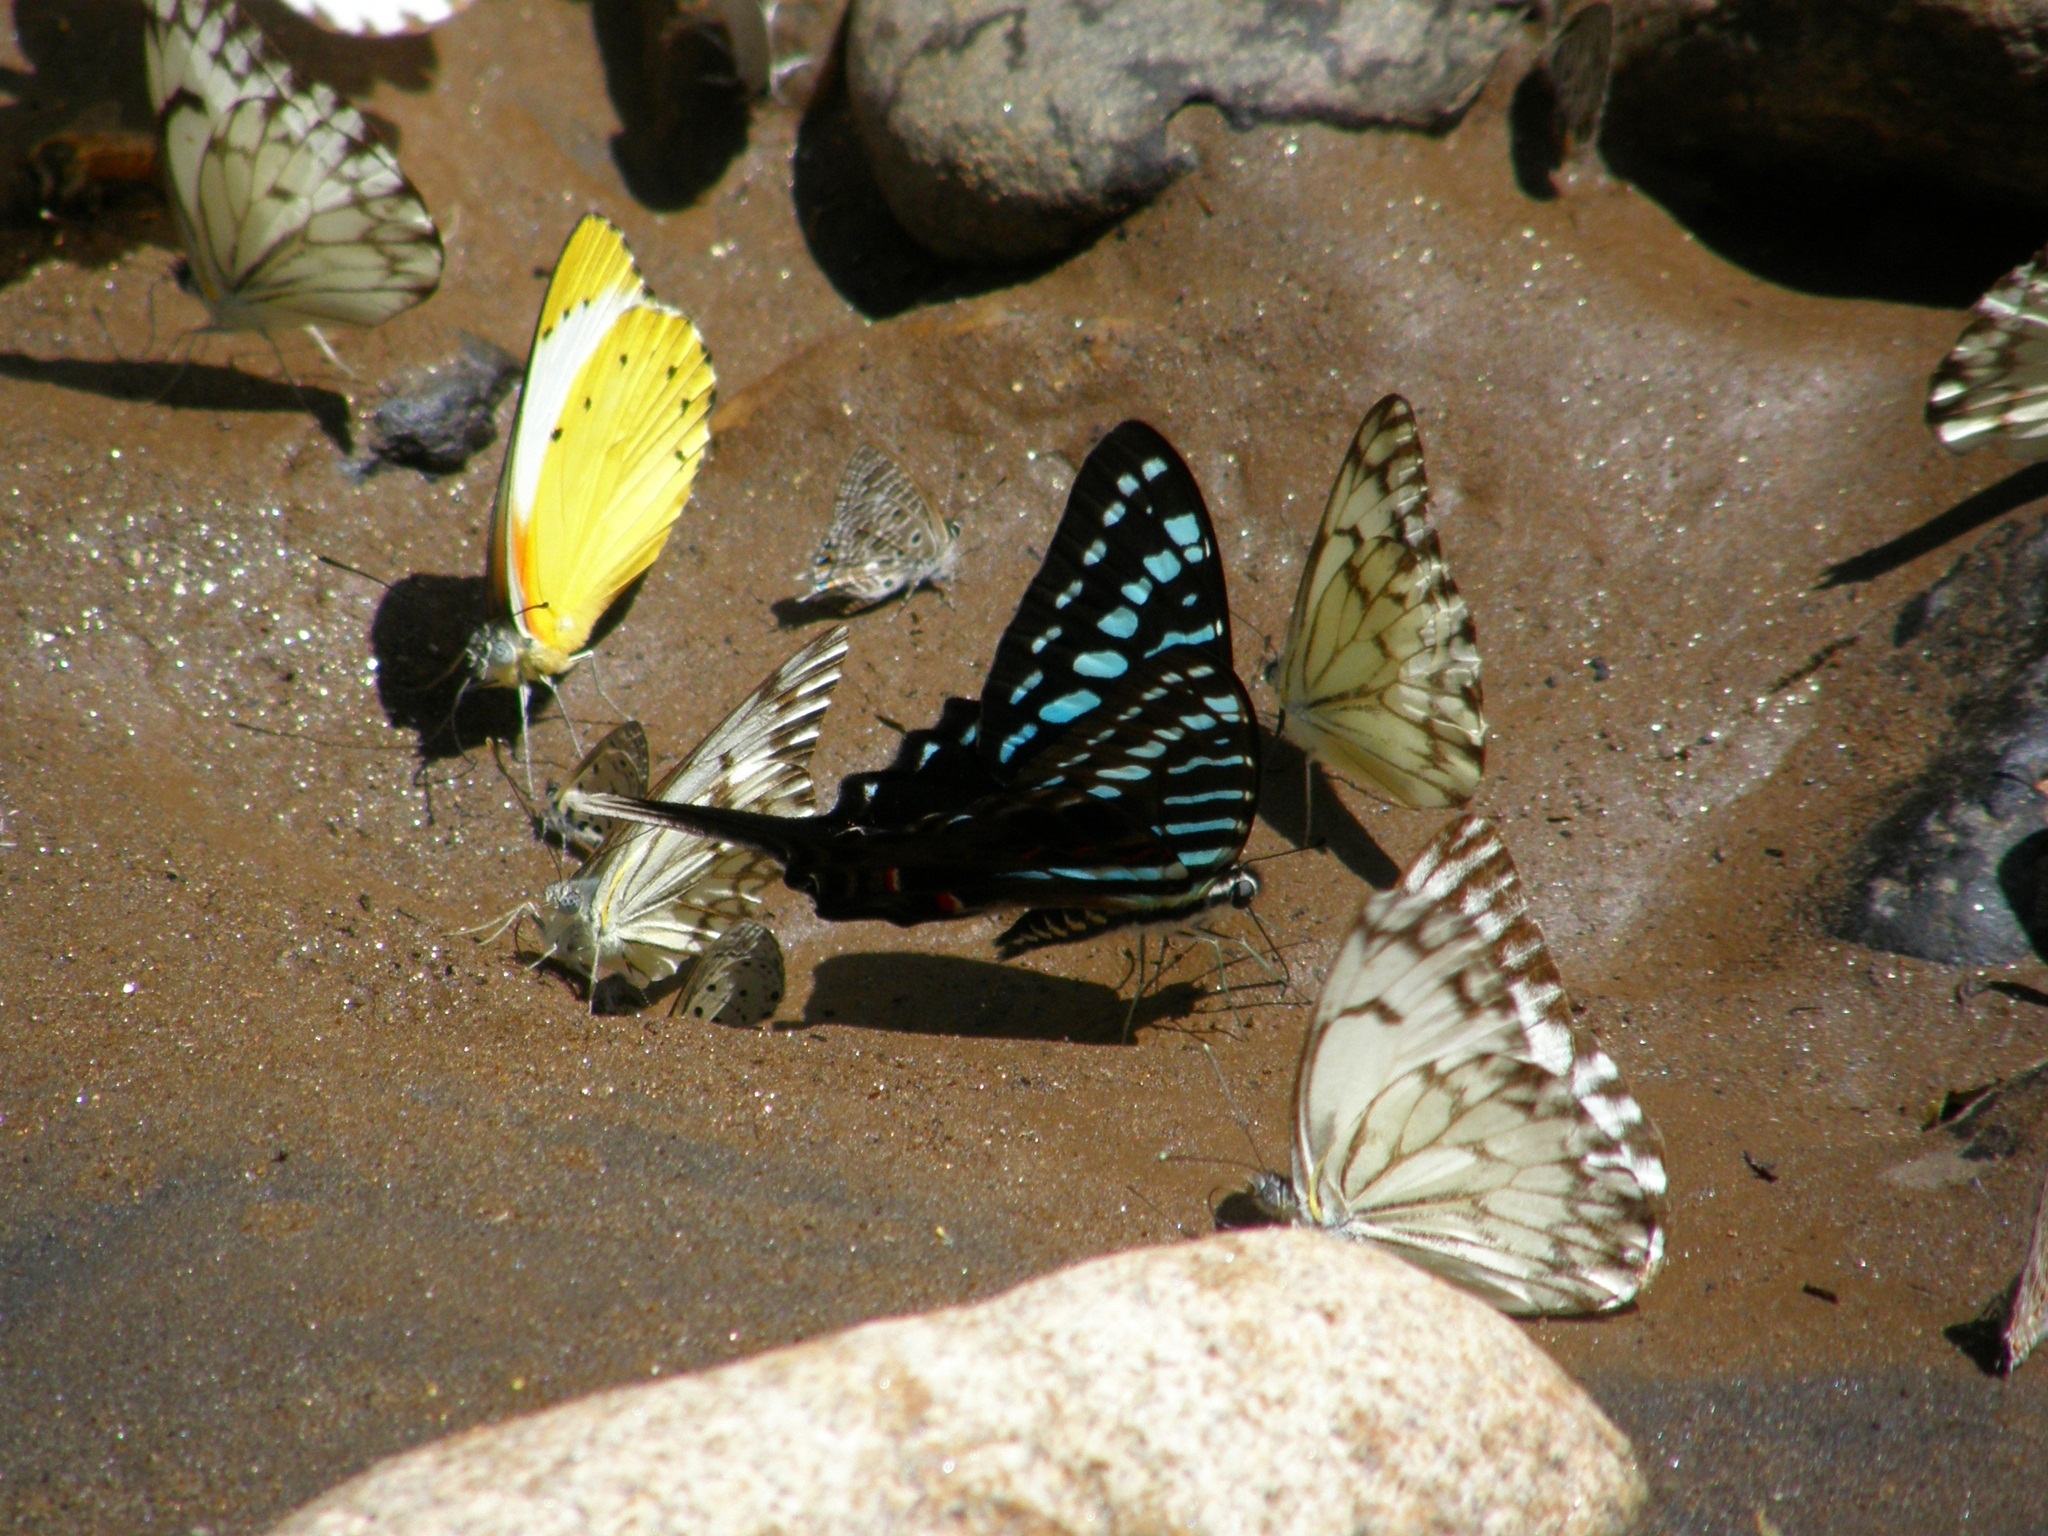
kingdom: Animalia
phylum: Arthropoda
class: Insecta
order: Lepidoptera
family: Pieridae
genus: Belenois
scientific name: Belenois thysa
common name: False dotted border
